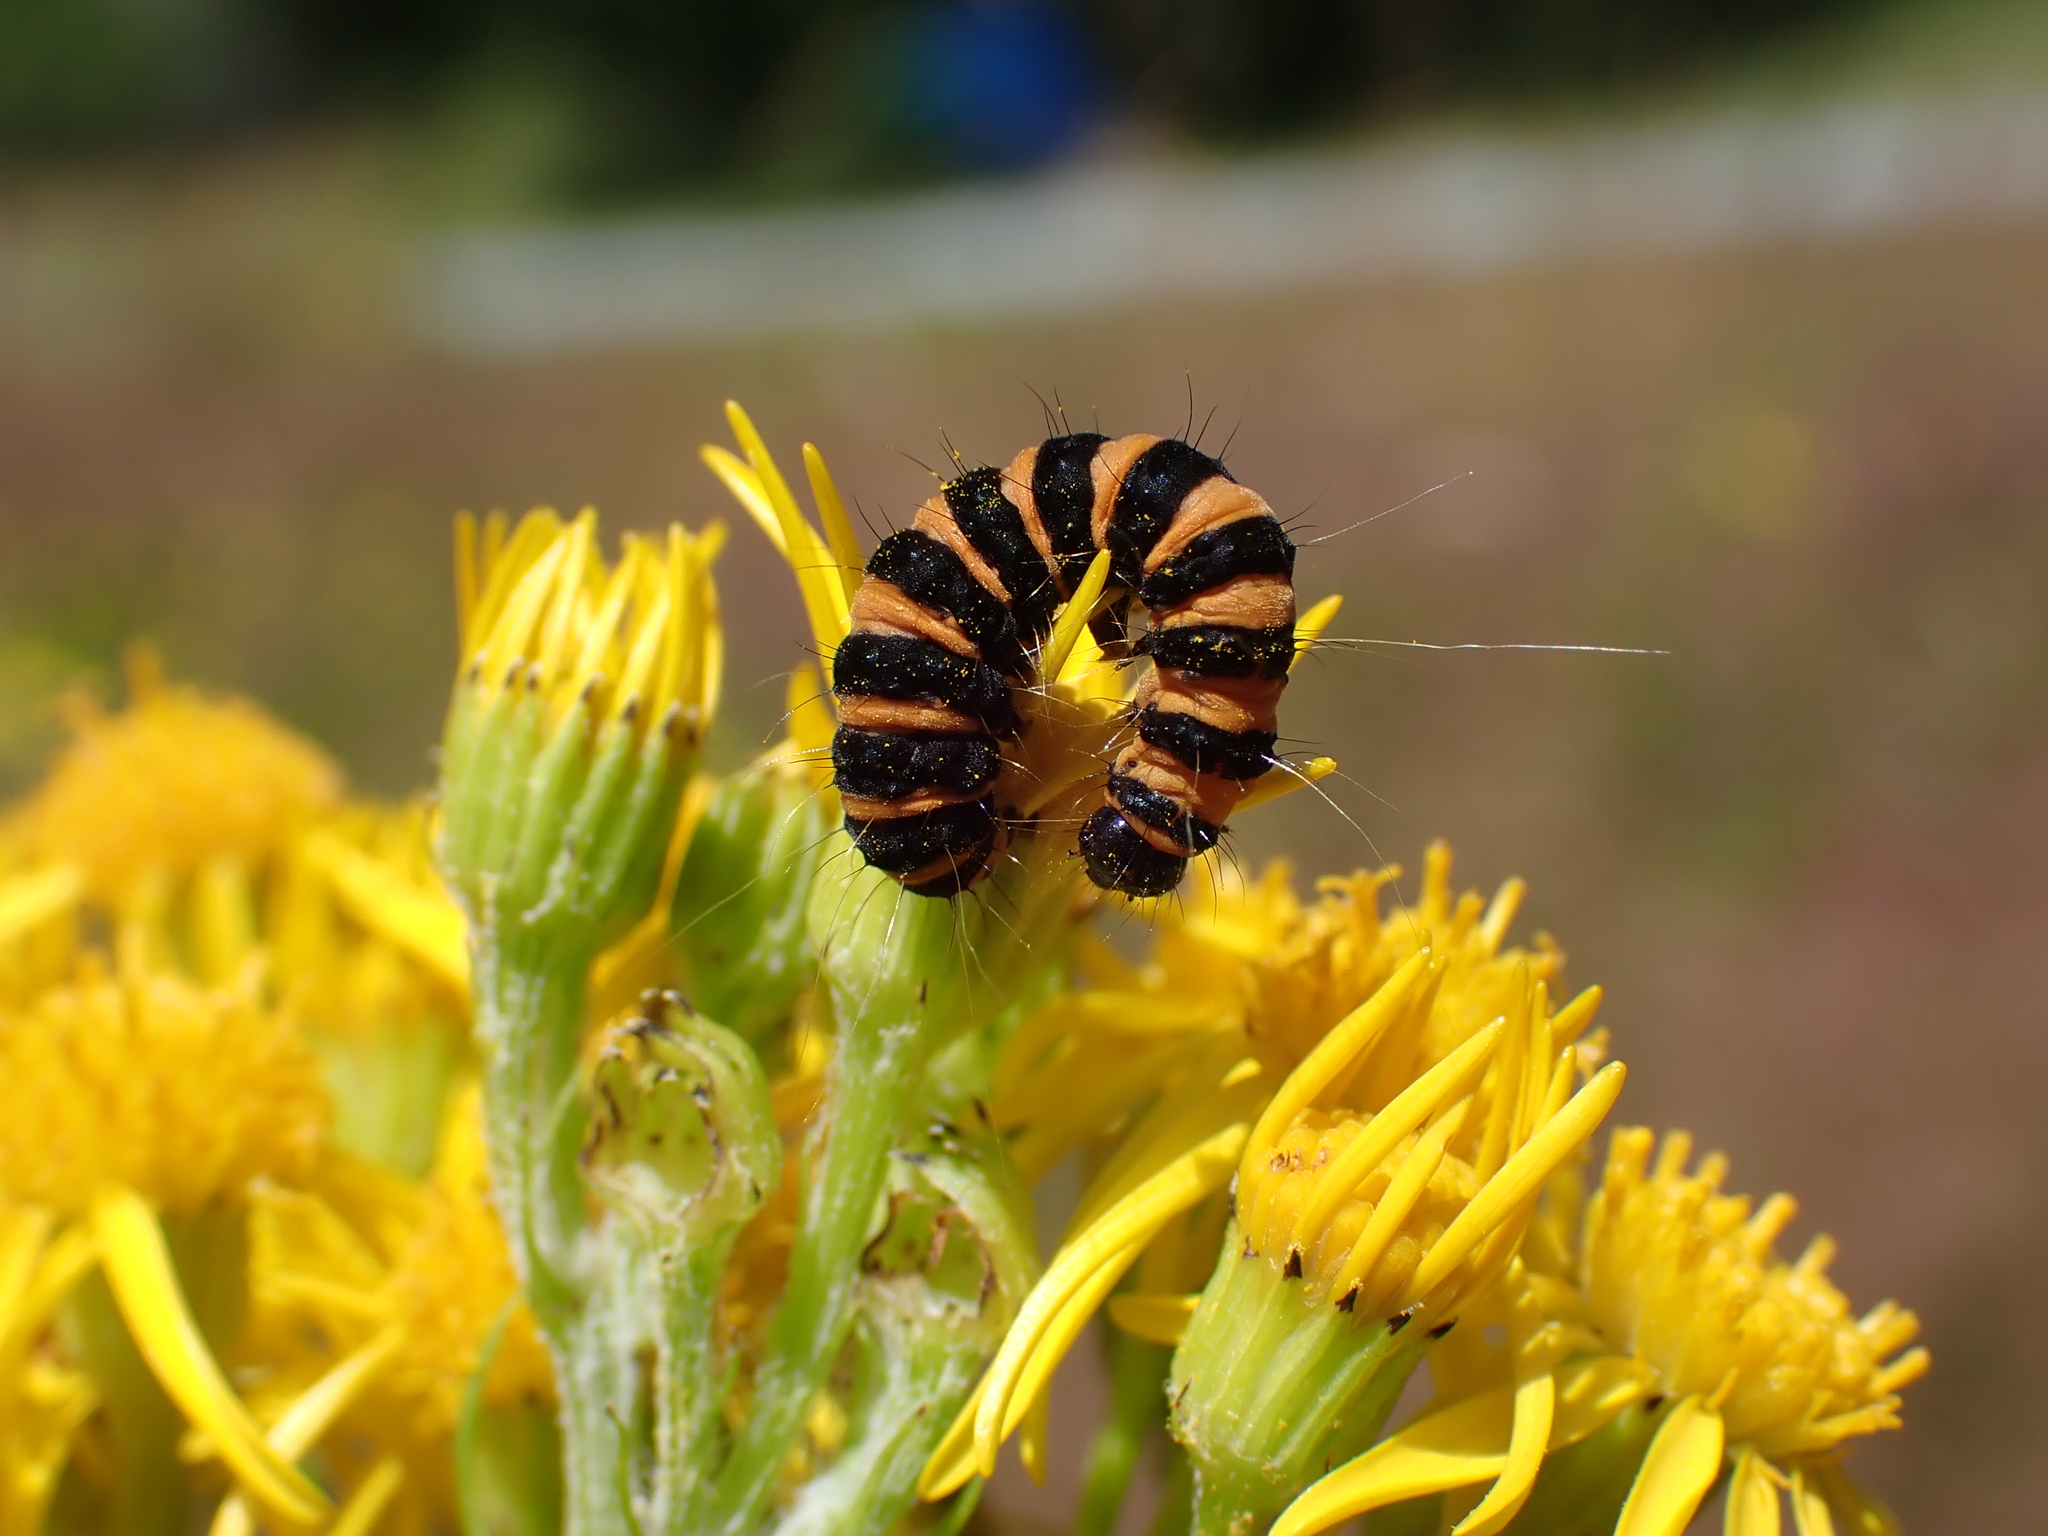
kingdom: Animalia
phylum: Arthropoda
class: Insecta
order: Lepidoptera
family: Erebidae
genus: Tyria
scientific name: Tyria jacobaeae
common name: Cinnabar
